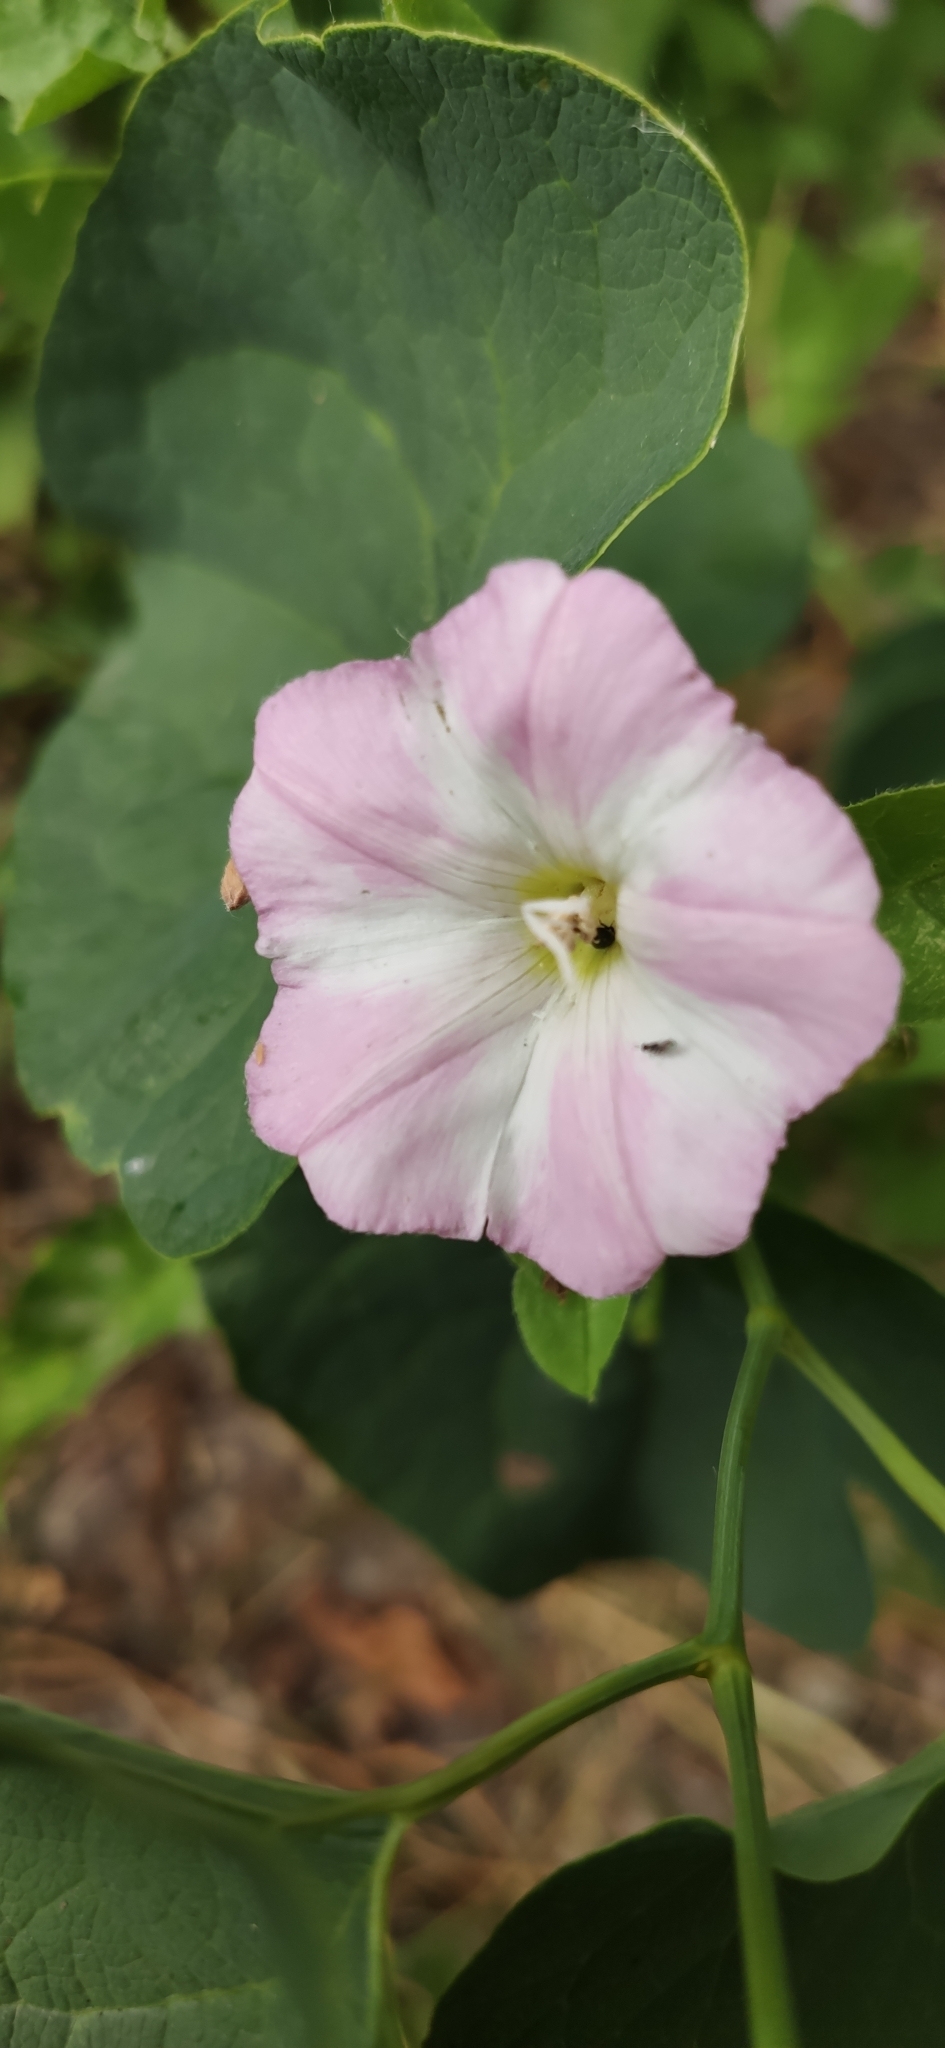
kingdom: Plantae
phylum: Tracheophyta
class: Magnoliopsida
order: Solanales
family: Convolvulaceae
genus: Convolvulus
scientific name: Convolvulus arvensis
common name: Field bindweed
